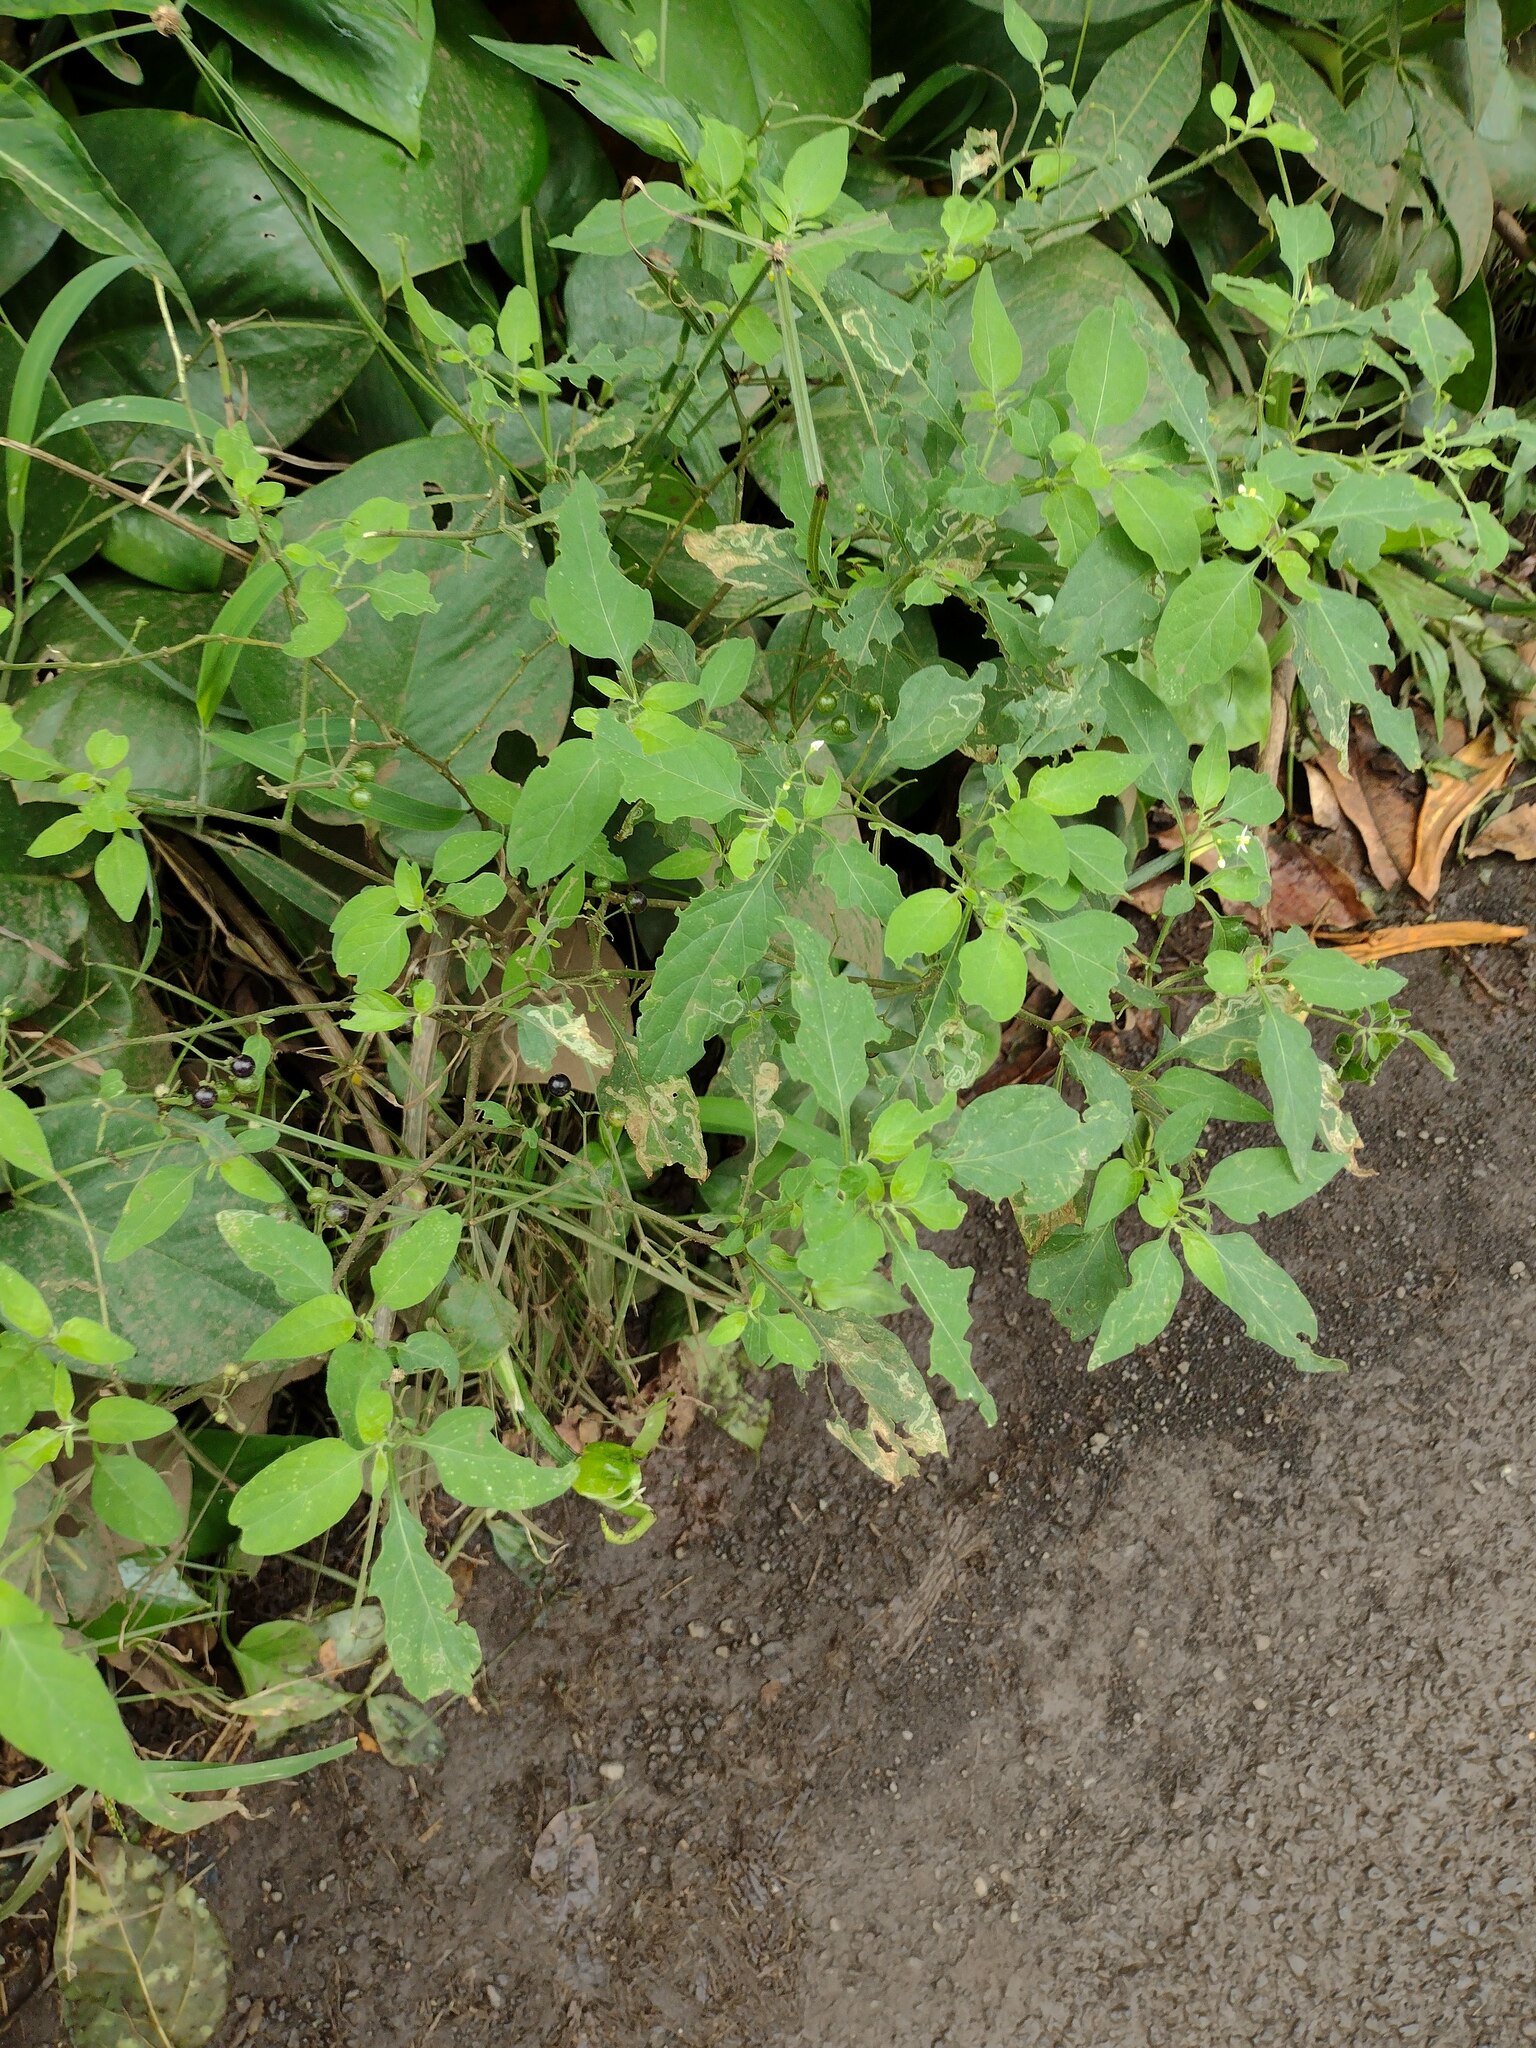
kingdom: Plantae
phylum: Tracheophyta
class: Magnoliopsida
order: Solanales
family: Solanaceae
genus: Solanum
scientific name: Solanum americanum
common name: American black nightshade
